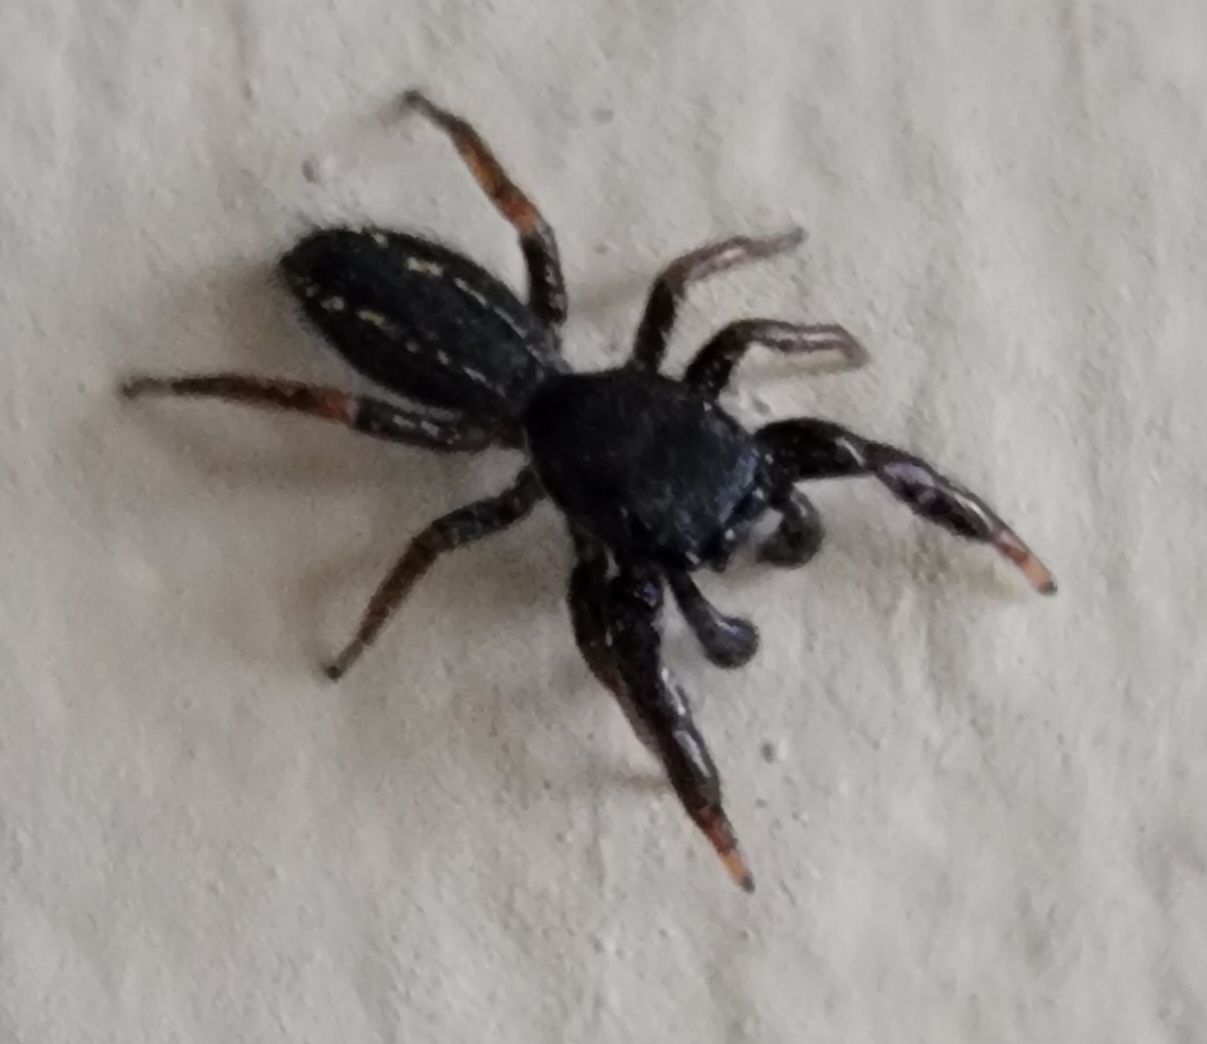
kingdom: Animalia
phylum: Arthropoda
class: Arachnida
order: Araneae
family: Salticidae
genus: Metacyrba
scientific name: Metacyrba taeniola
